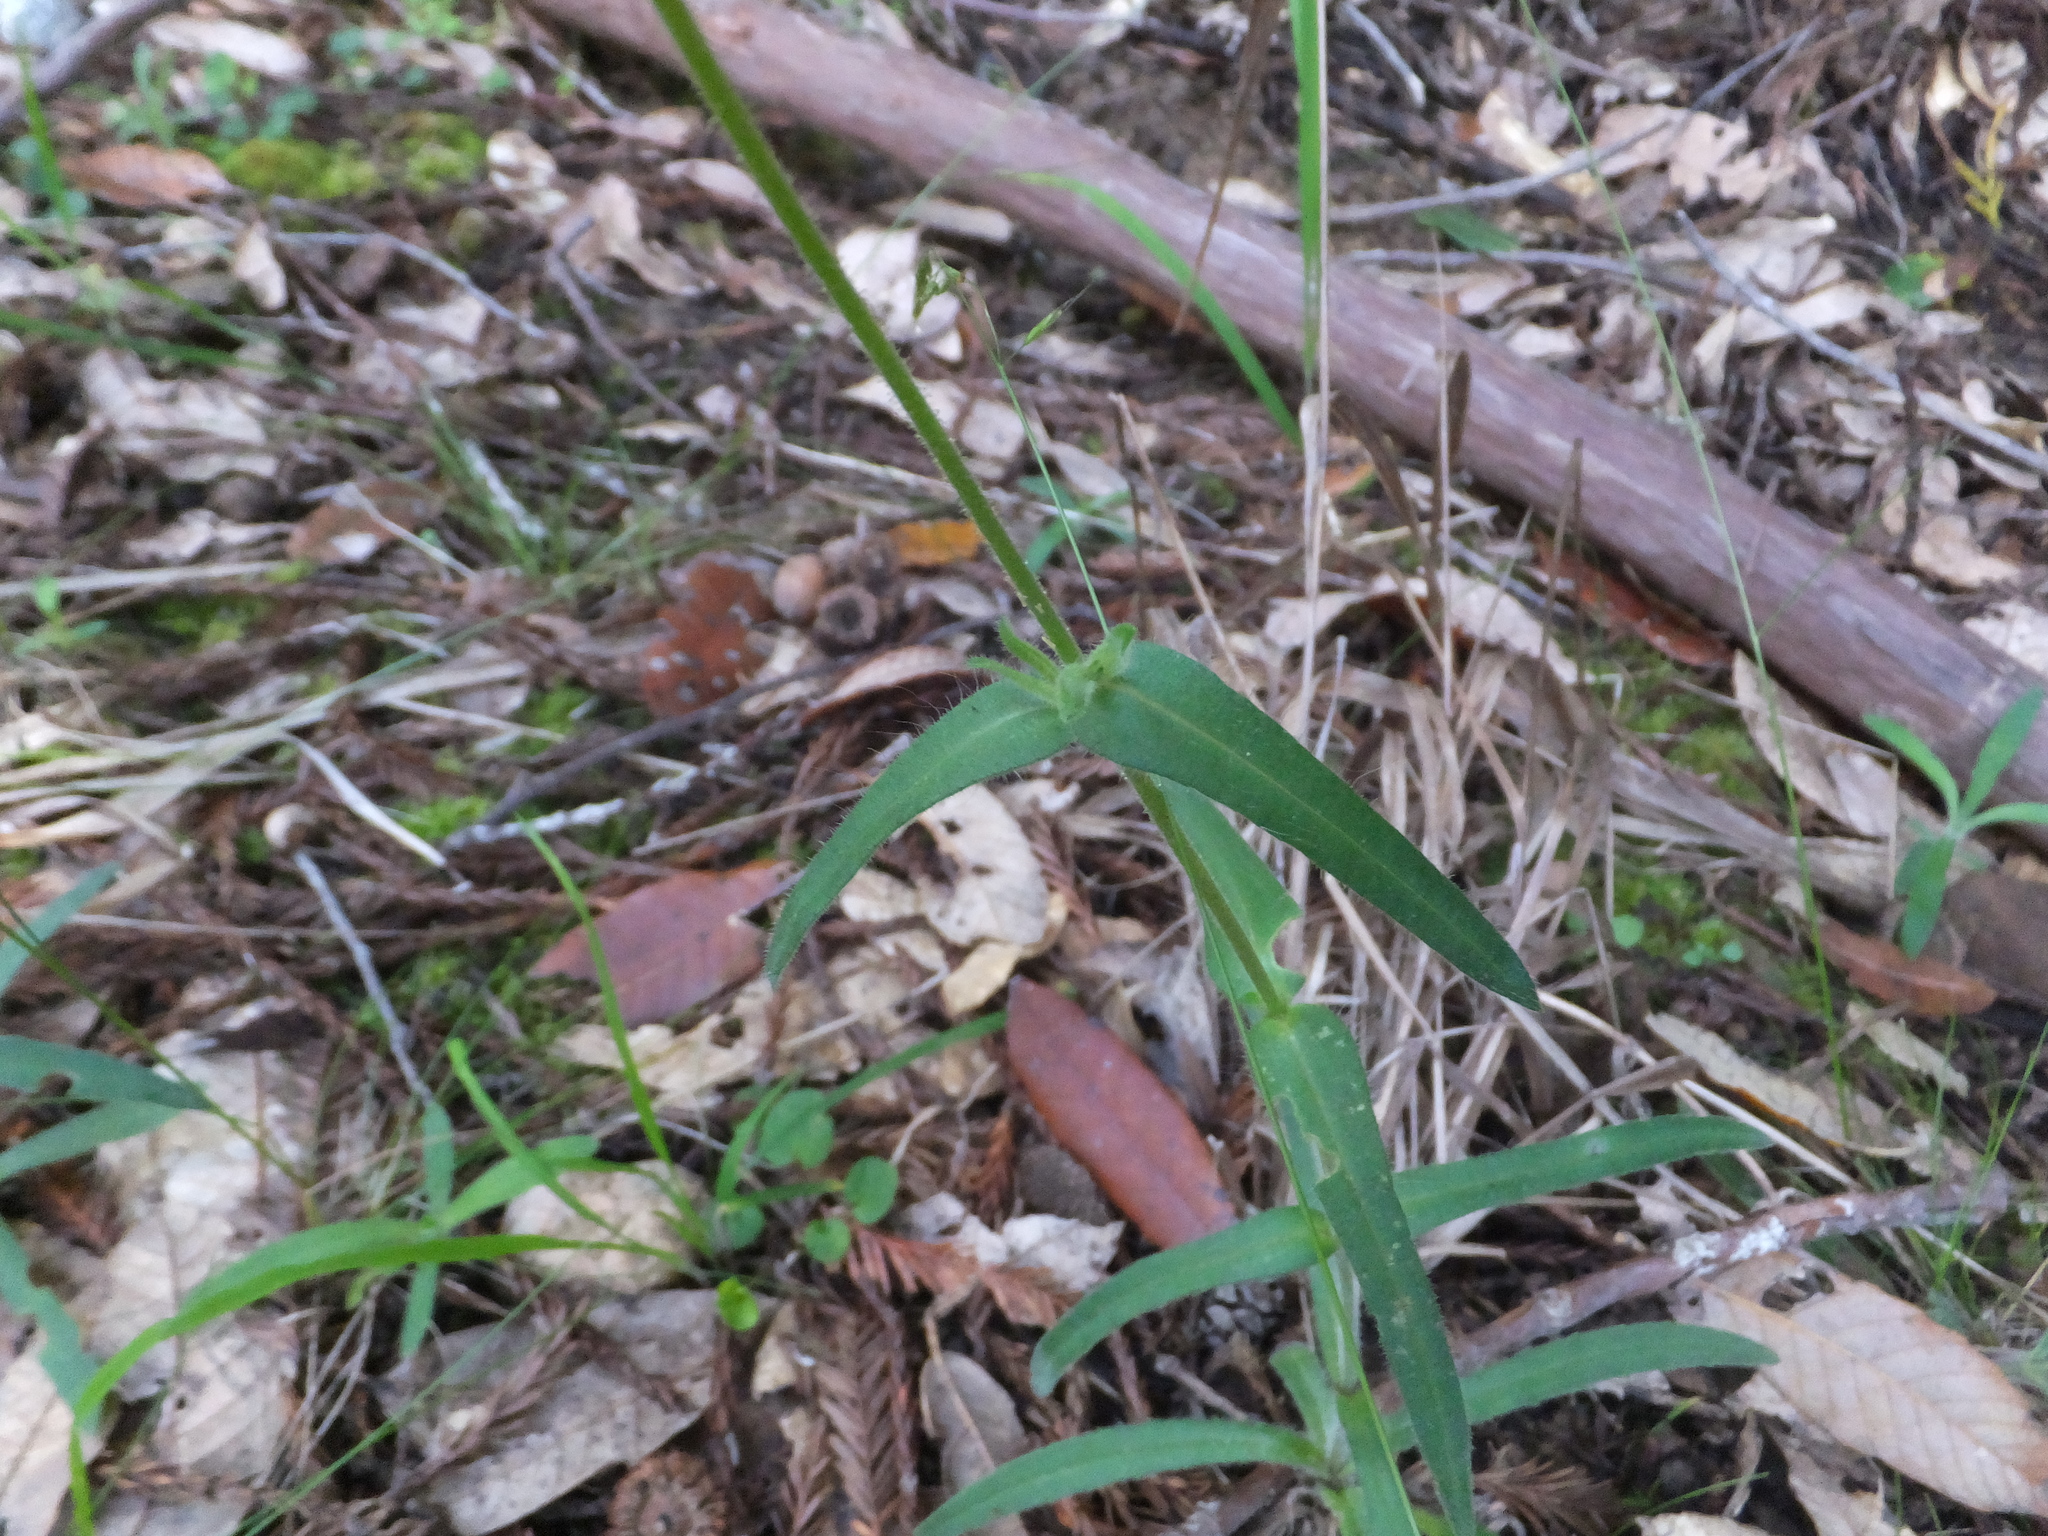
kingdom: Plantae
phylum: Tracheophyta
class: Magnoliopsida
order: Asterales
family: Asteraceae
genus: Anisocarpus
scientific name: Anisocarpus madioides
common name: Woodland madia
